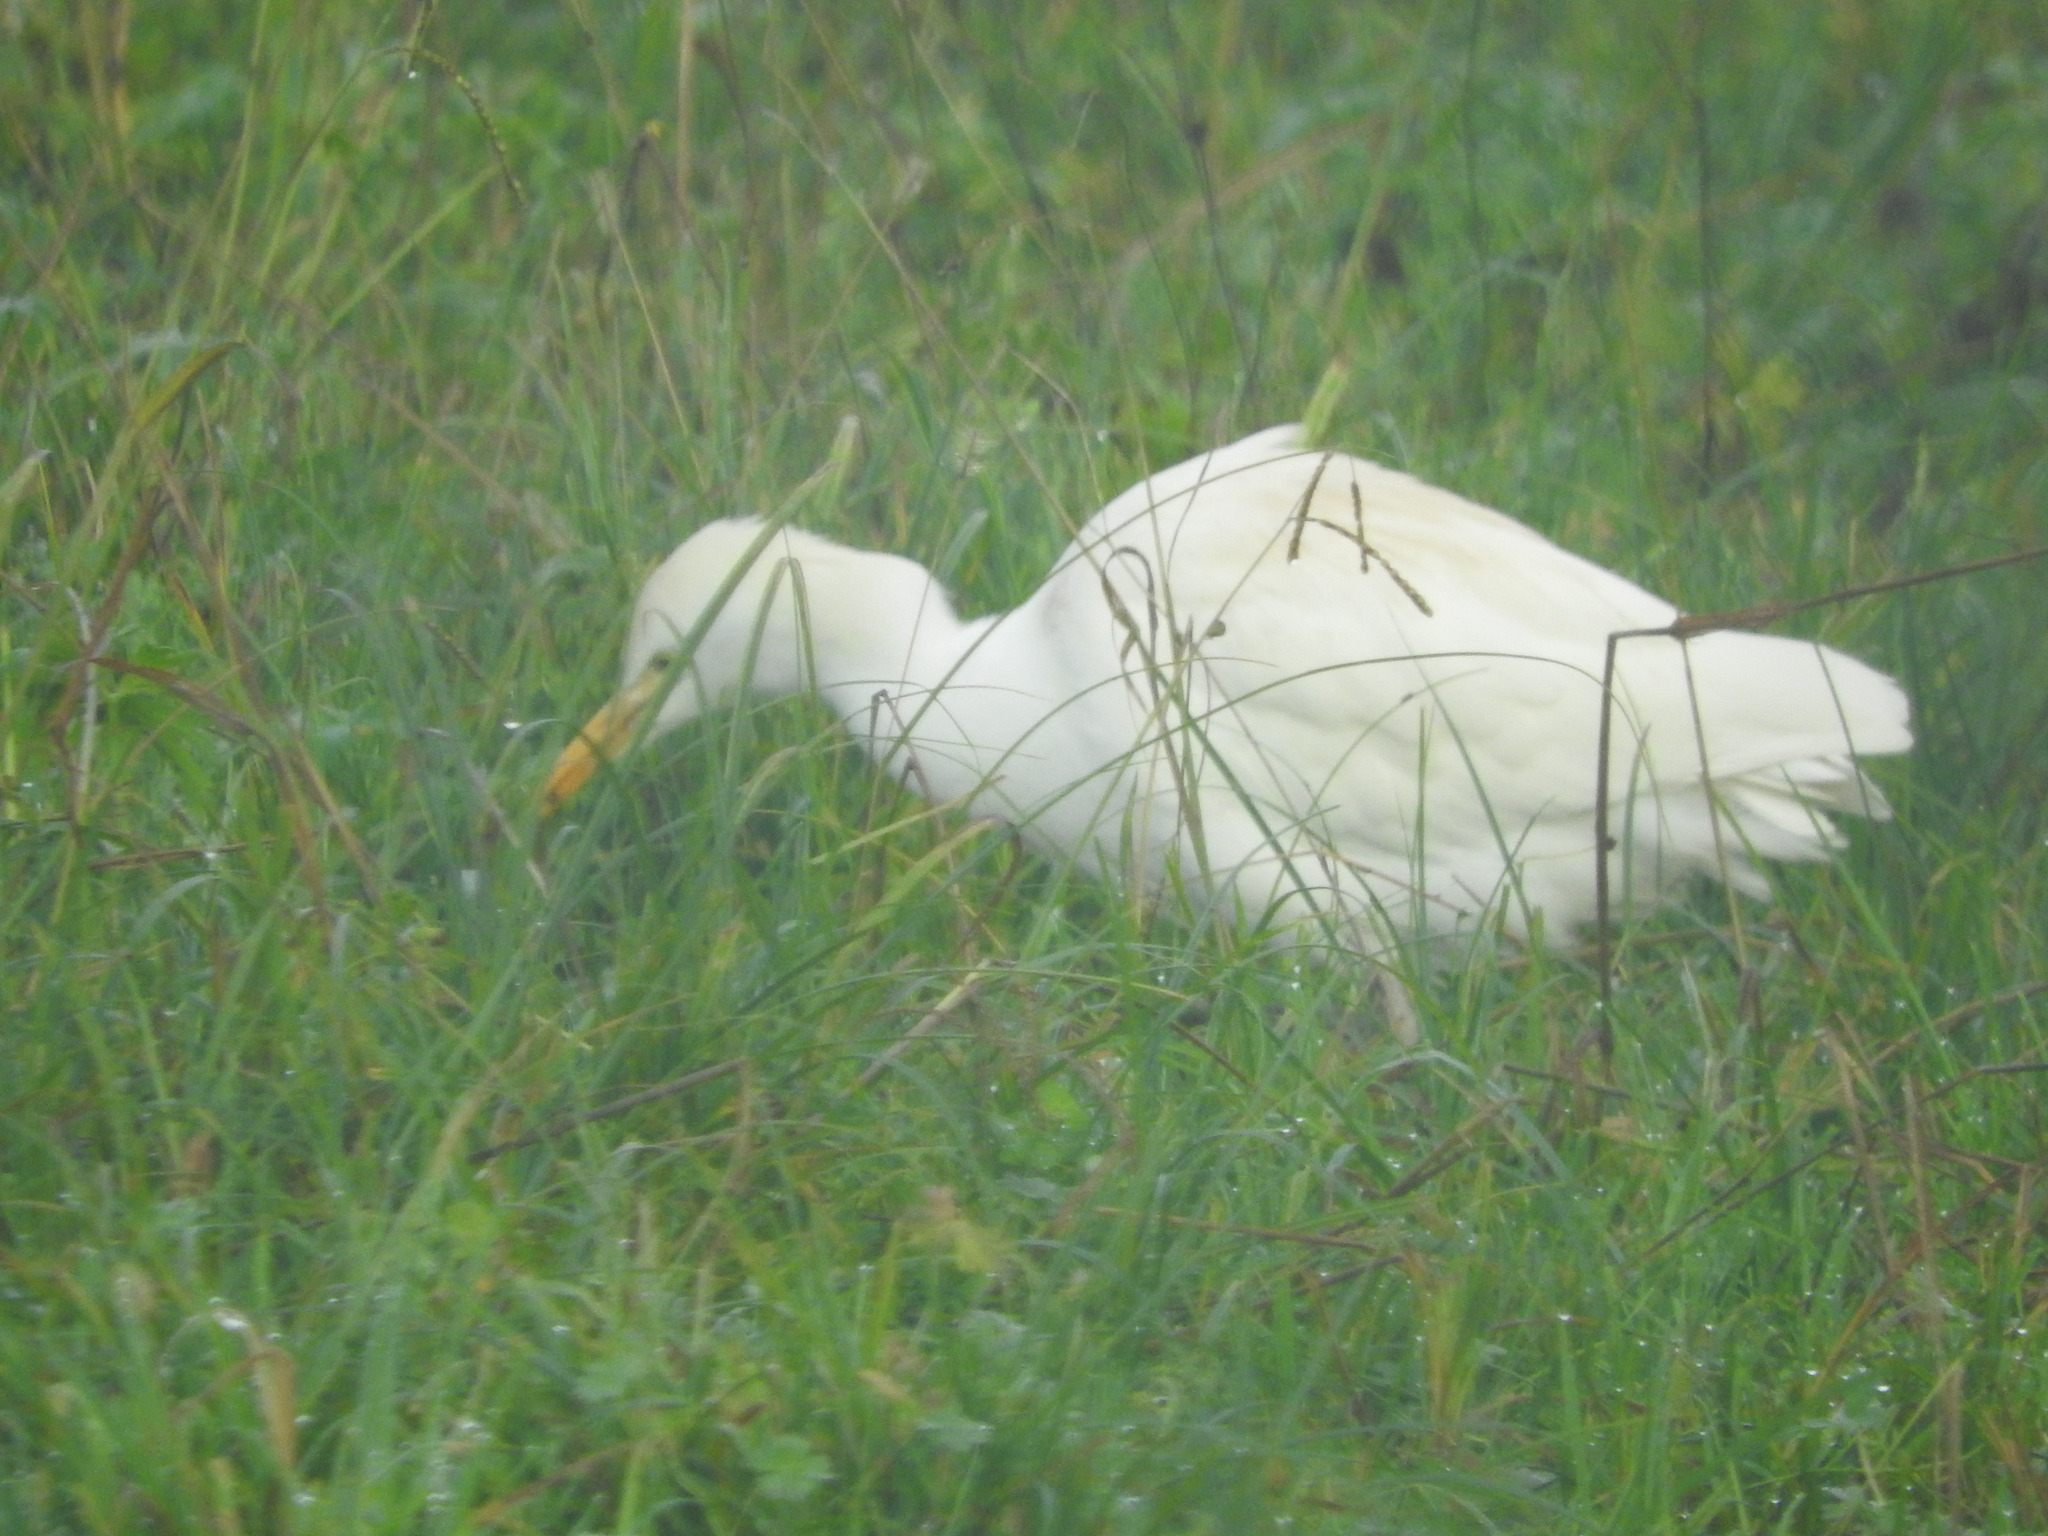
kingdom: Animalia
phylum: Chordata
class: Aves
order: Pelecaniformes
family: Ardeidae
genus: Bubulcus
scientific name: Bubulcus ibis
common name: Cattle egret
